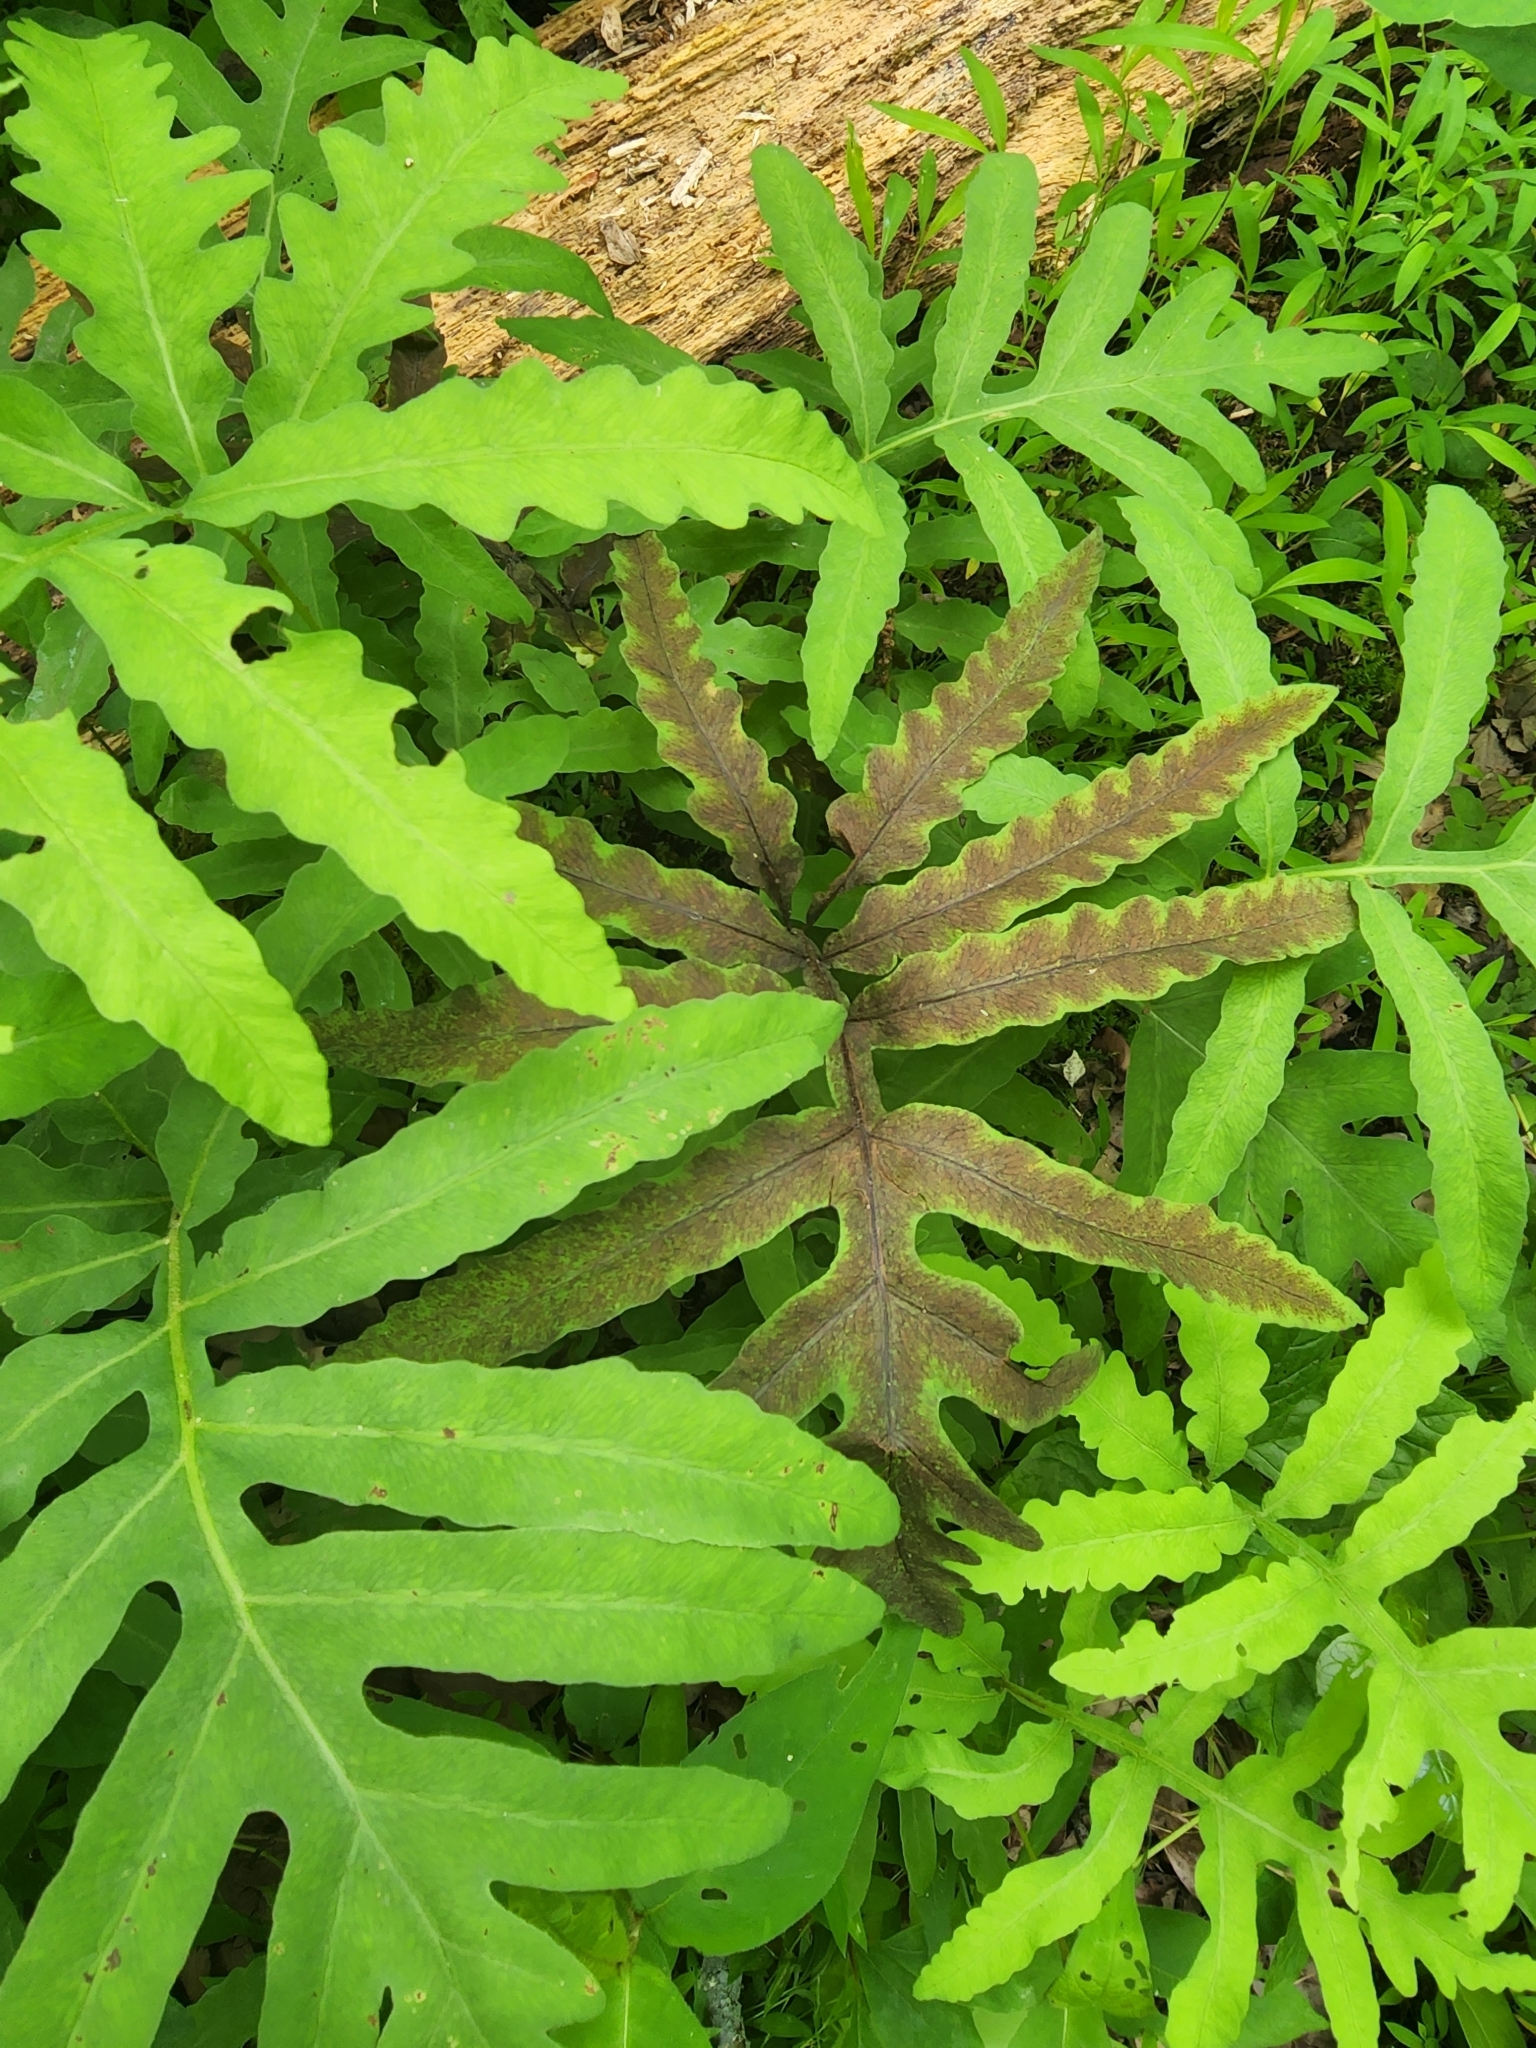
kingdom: Plantae
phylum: Tracheophyta
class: Polypodiopsida
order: Polypodiales
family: Onocleaceae
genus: Onoclea
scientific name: Onoclea sensibilis
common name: Sensitive fern
